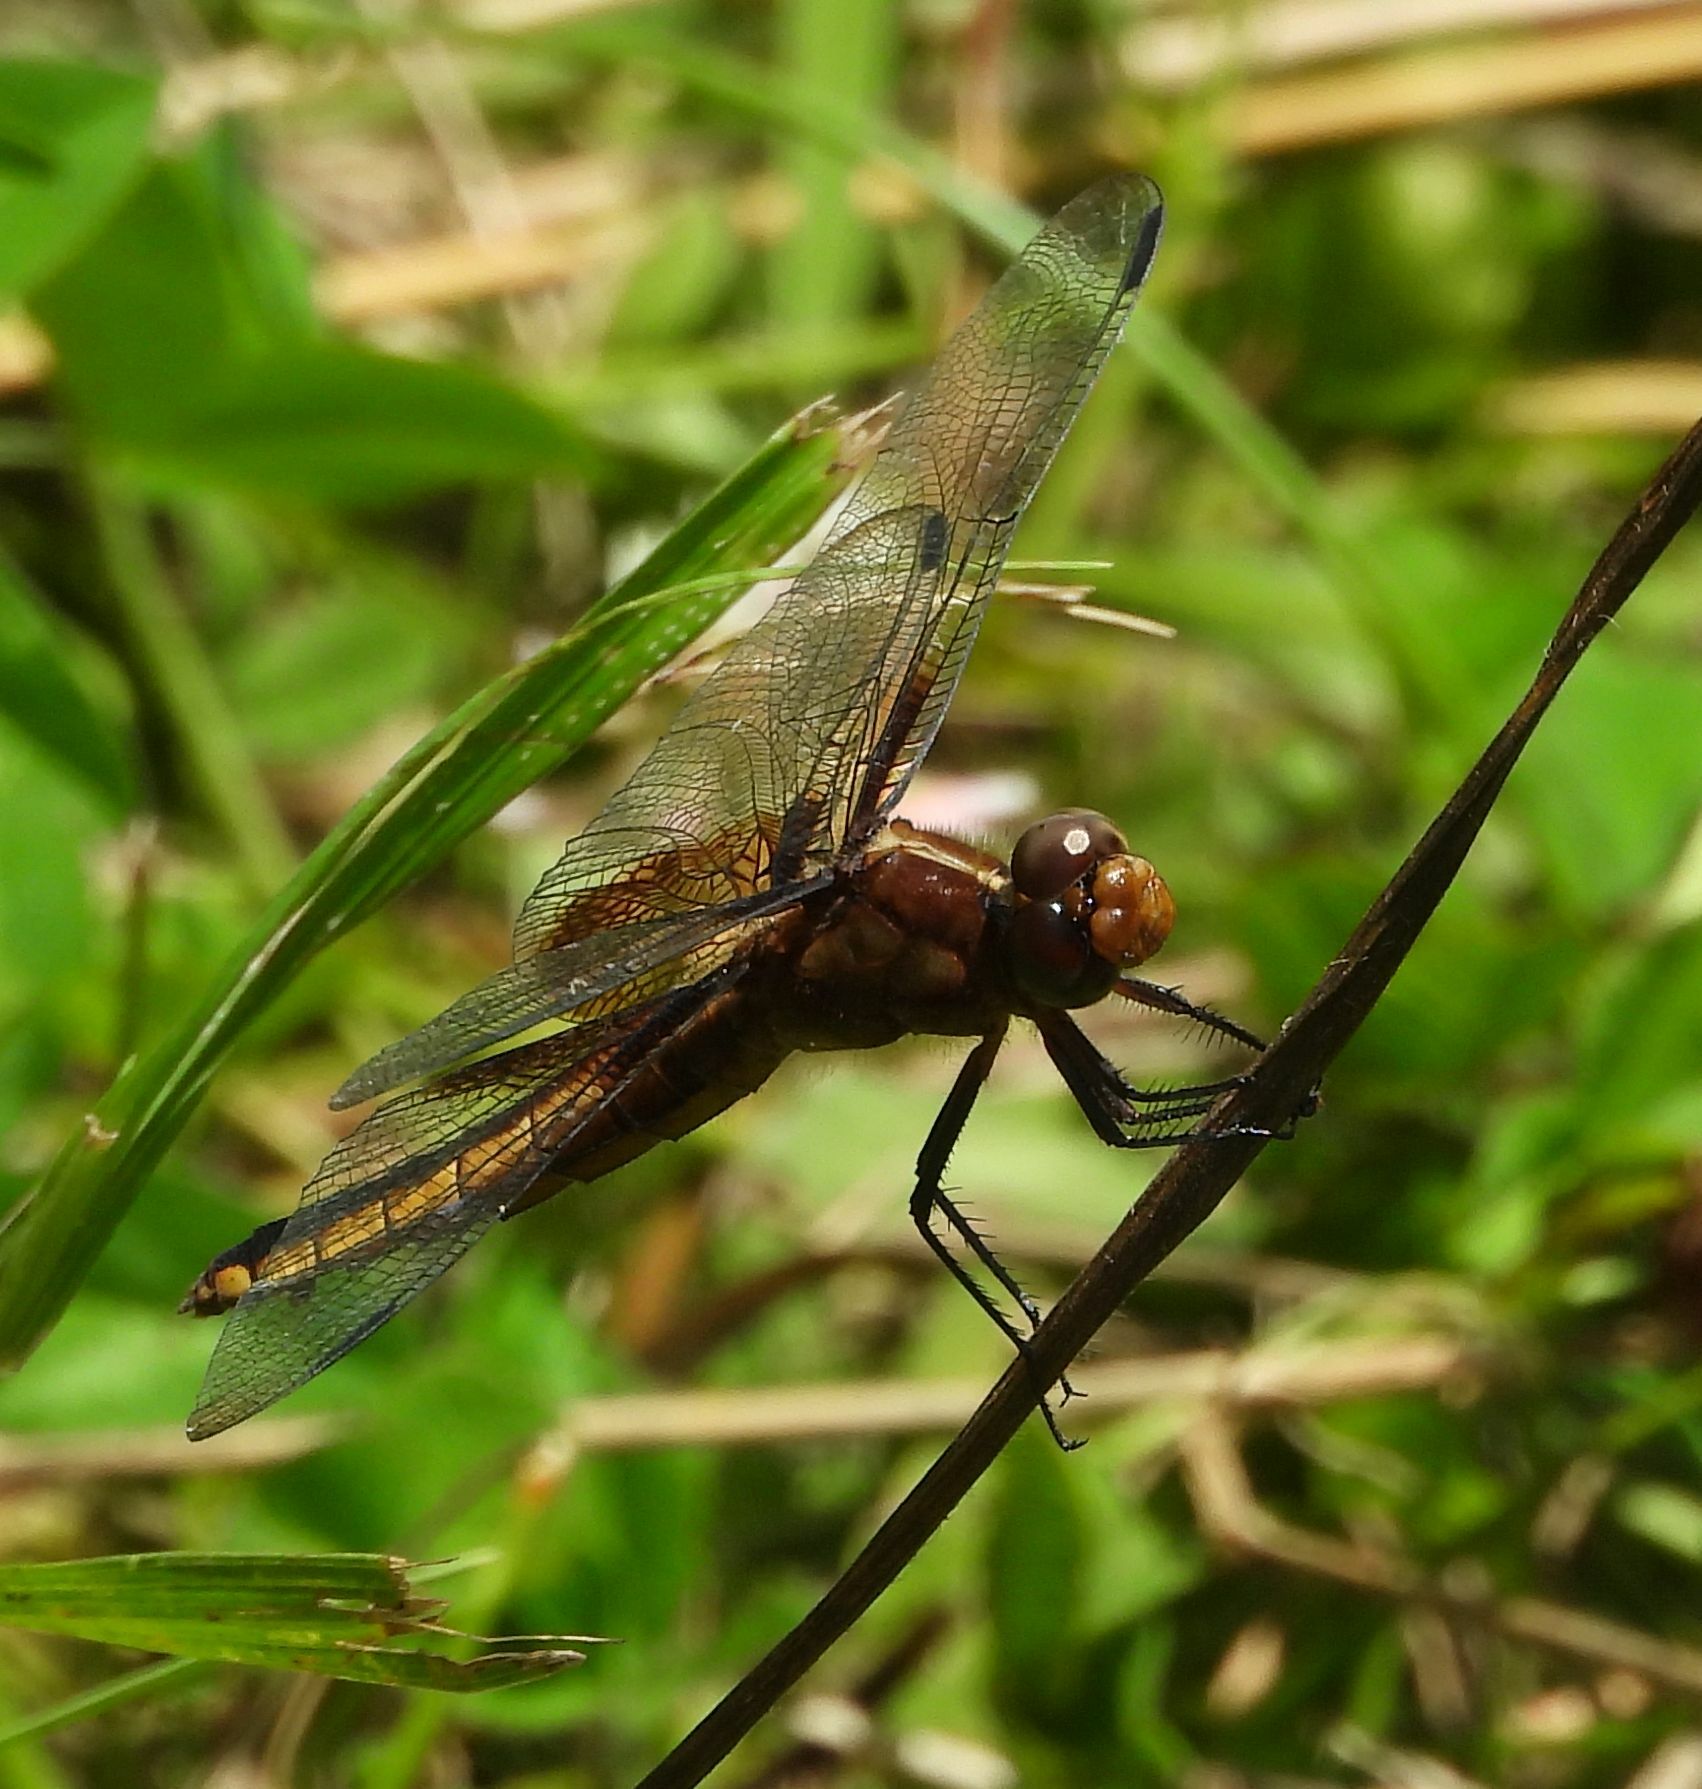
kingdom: Animalia
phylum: Arthropoda
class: Insecta
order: Odonata
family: Libellulidae
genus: Libellula
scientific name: Libellula luctuosa
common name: Widow skimmer
